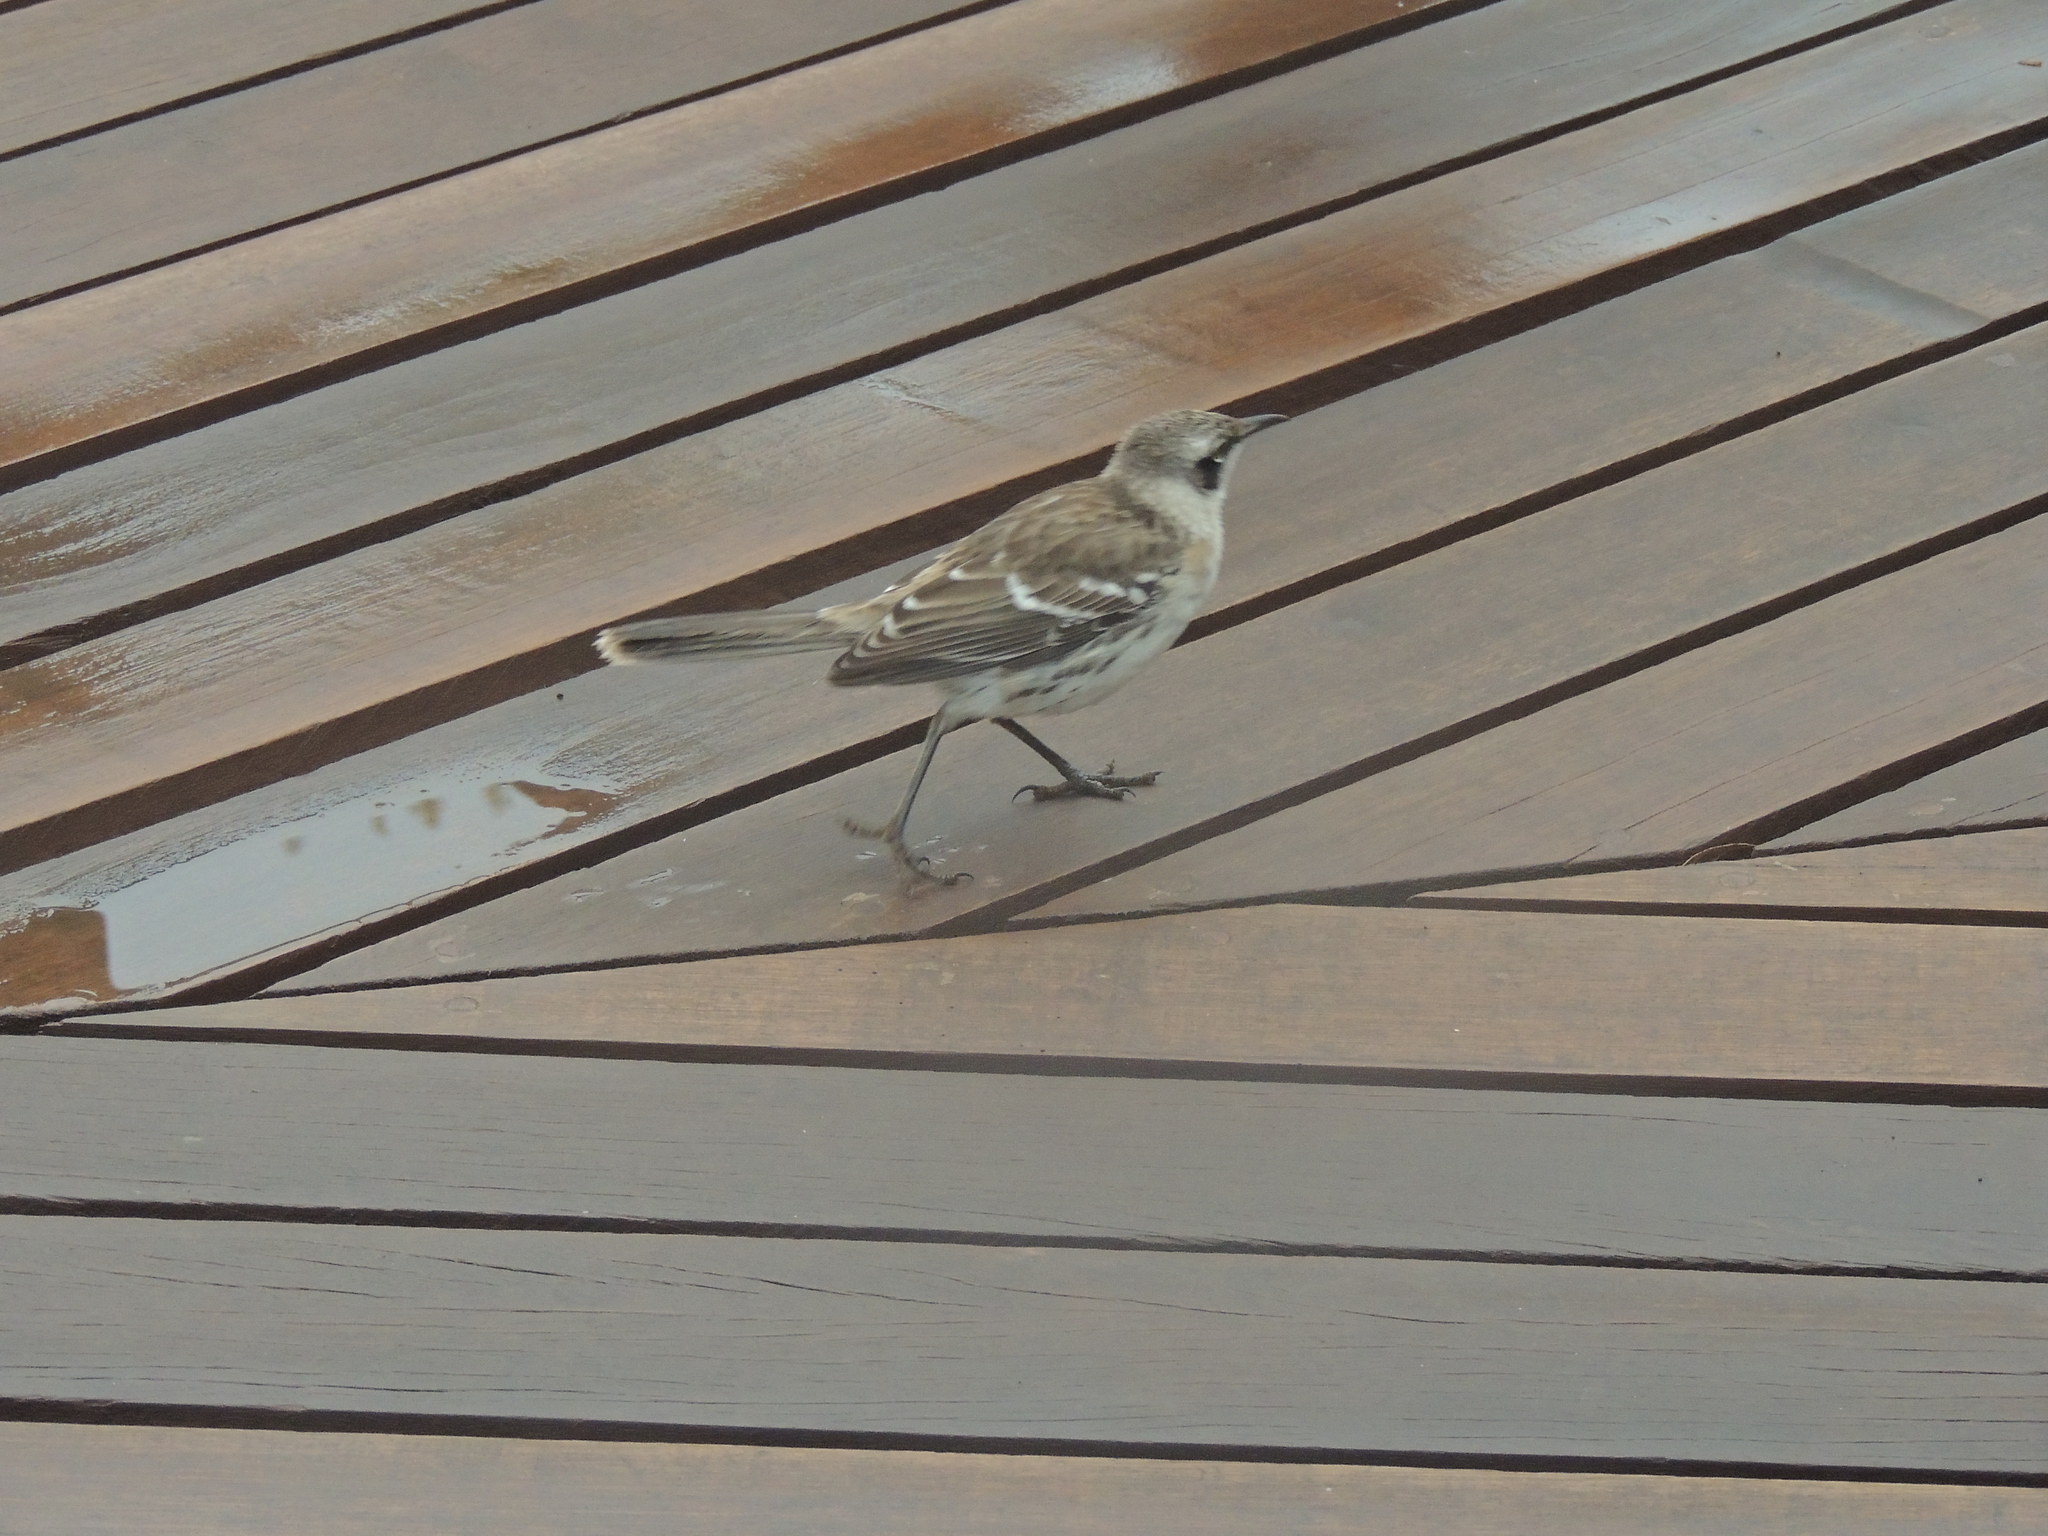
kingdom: Animalia
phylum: Chordata
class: Aves
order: Passeriformes
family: Mimidae
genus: Mimus
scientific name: Mimus parvulus
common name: Galapagos mockingbird
